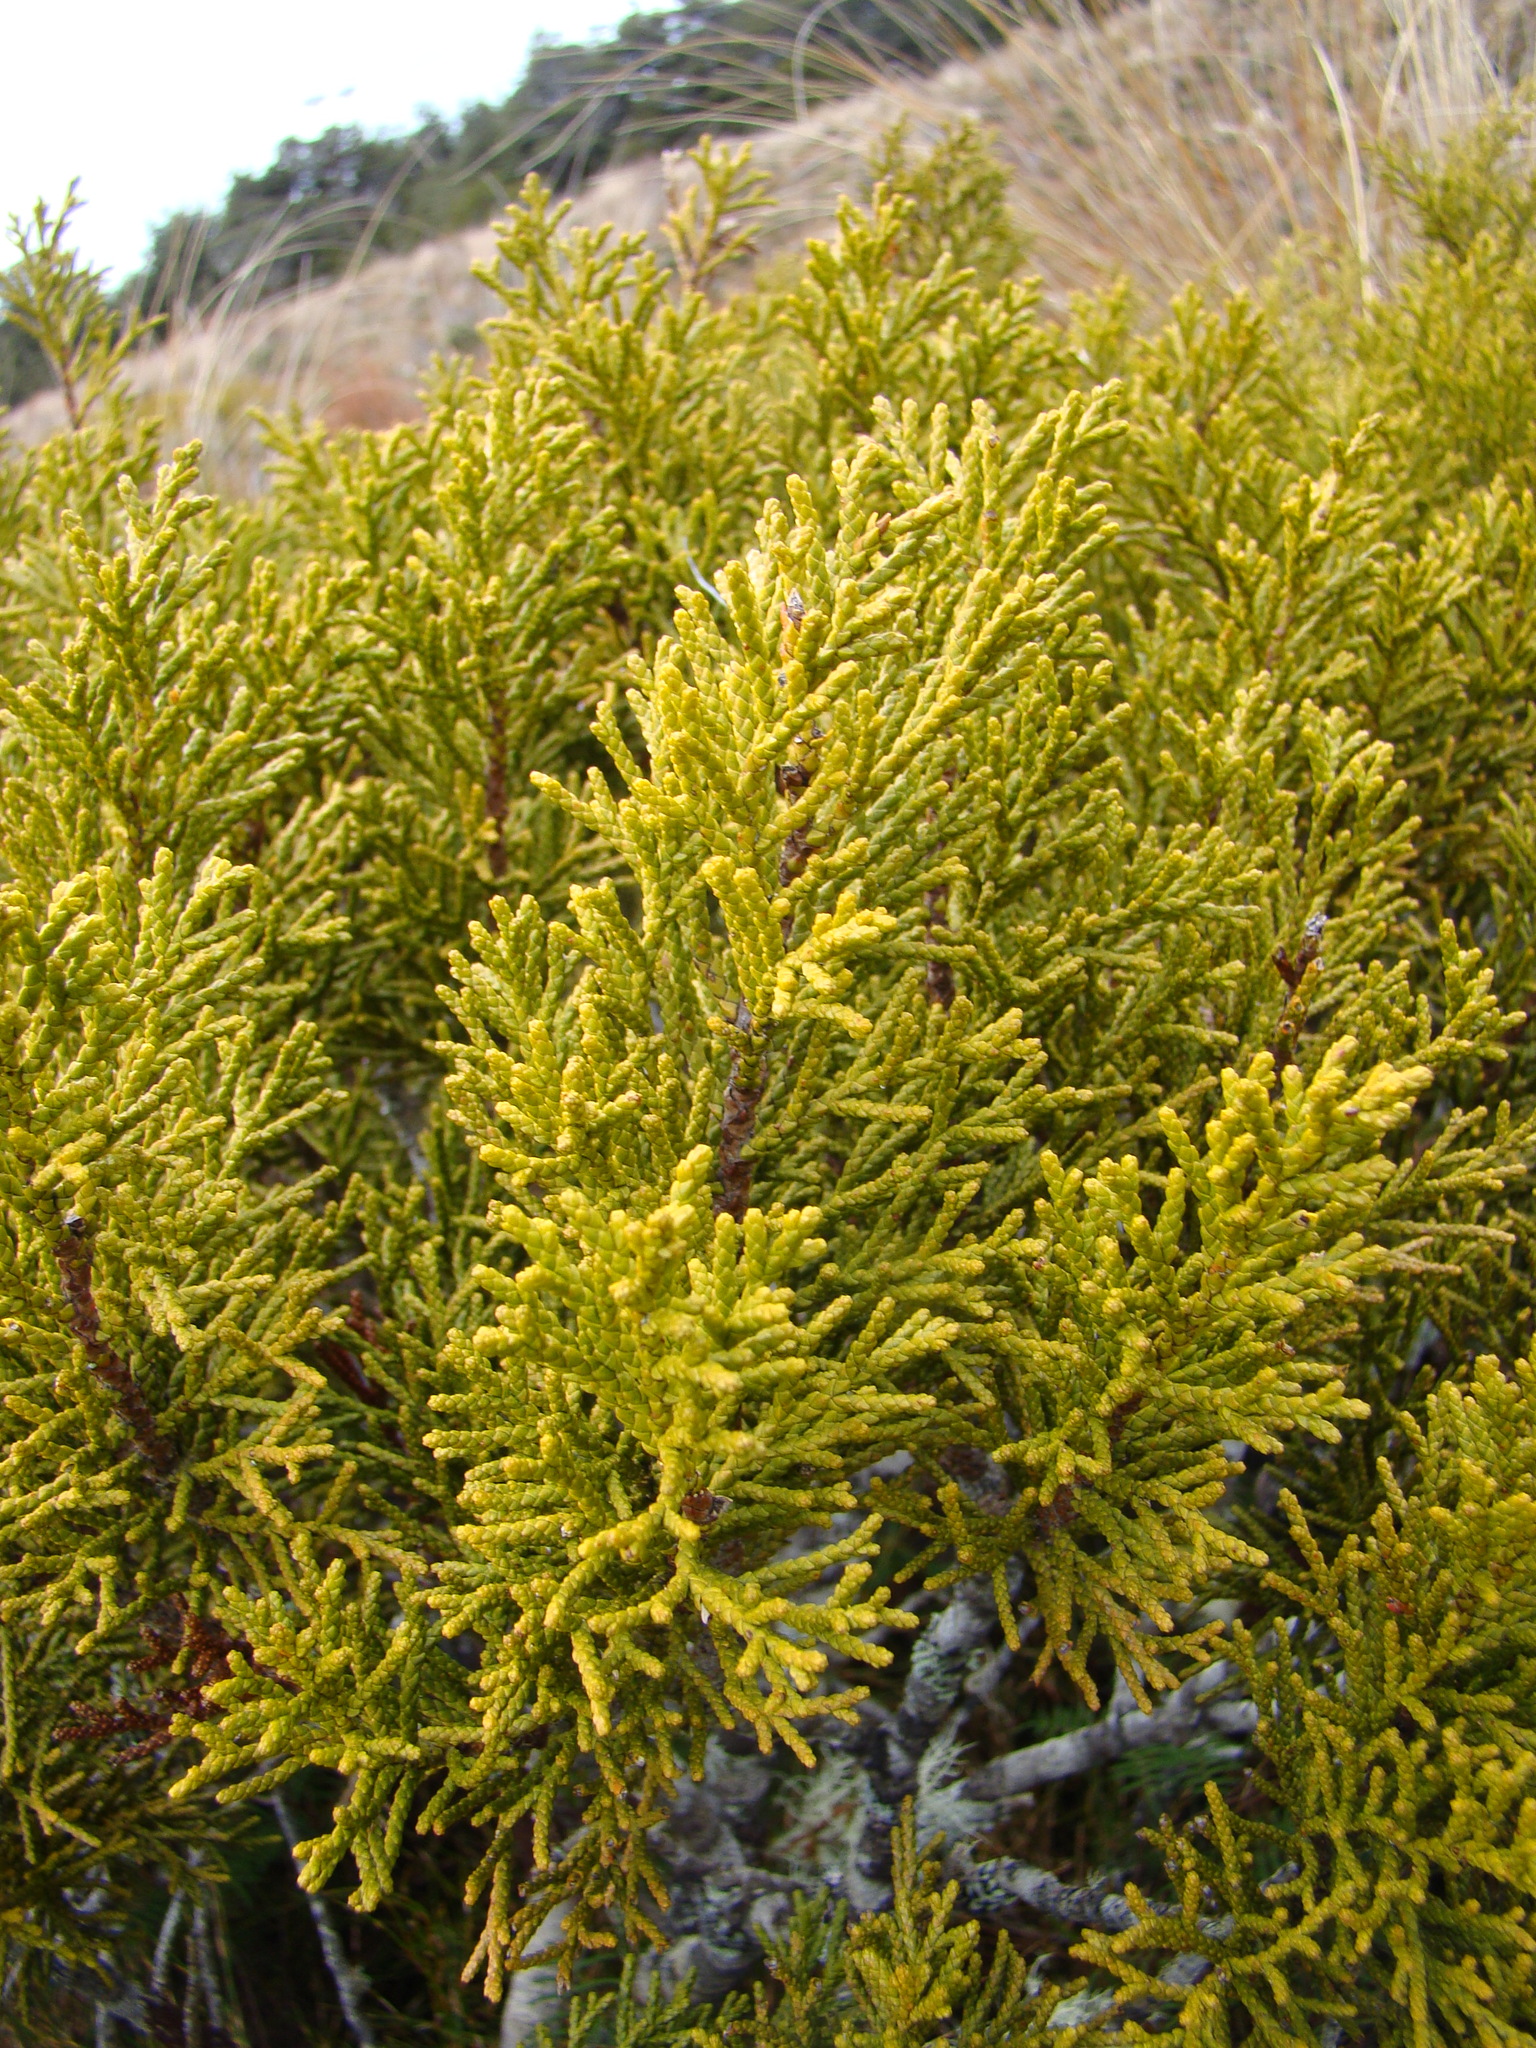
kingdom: Plantae
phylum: Tracheophyta
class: Pinopsida
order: Pinales
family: Podocarpaceae
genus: Halocarpus
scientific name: Halocarpus bidwillii
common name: Bog pine
